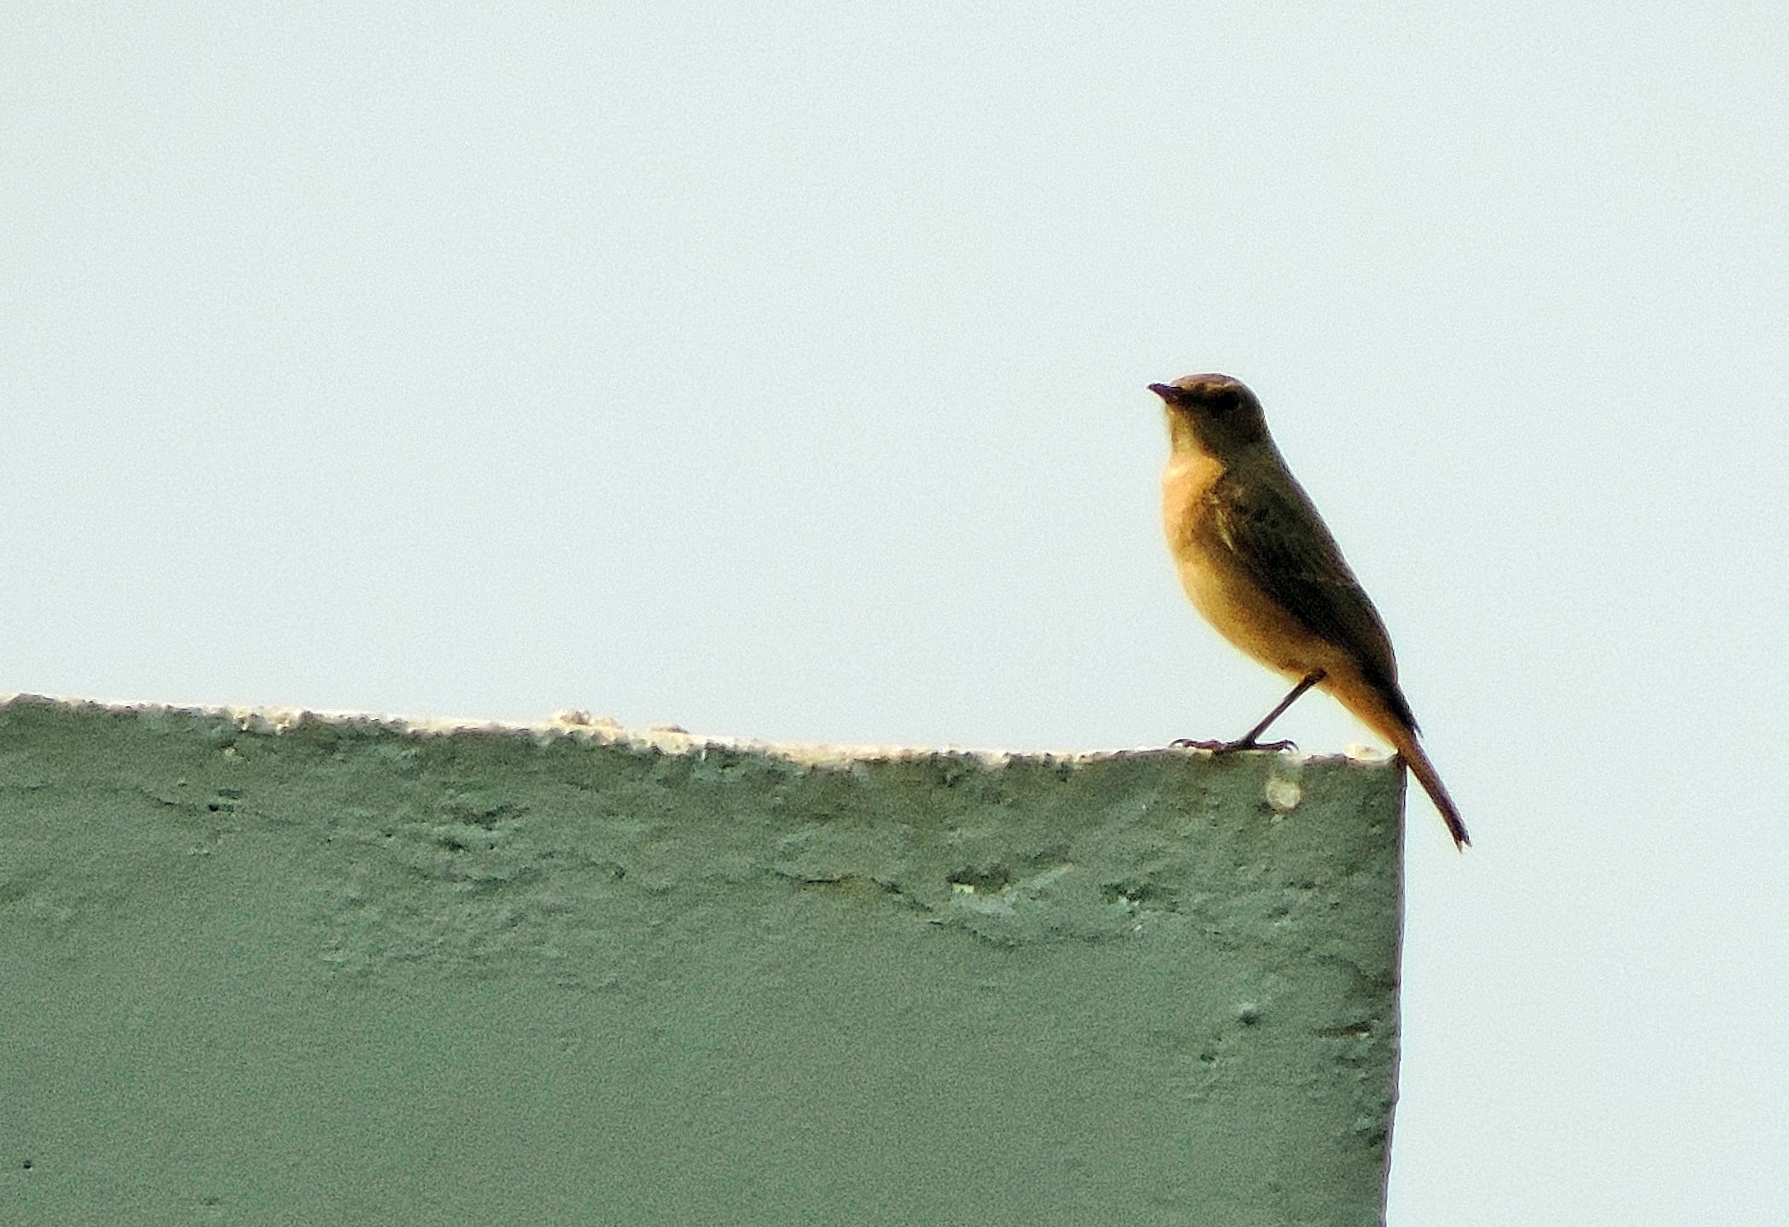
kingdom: Animalia
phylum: Chordata
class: Aves
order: Passeriformes
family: Muscicapidae
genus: Oenanthe
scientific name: Oenanthe familiaris
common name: Familiar chat
